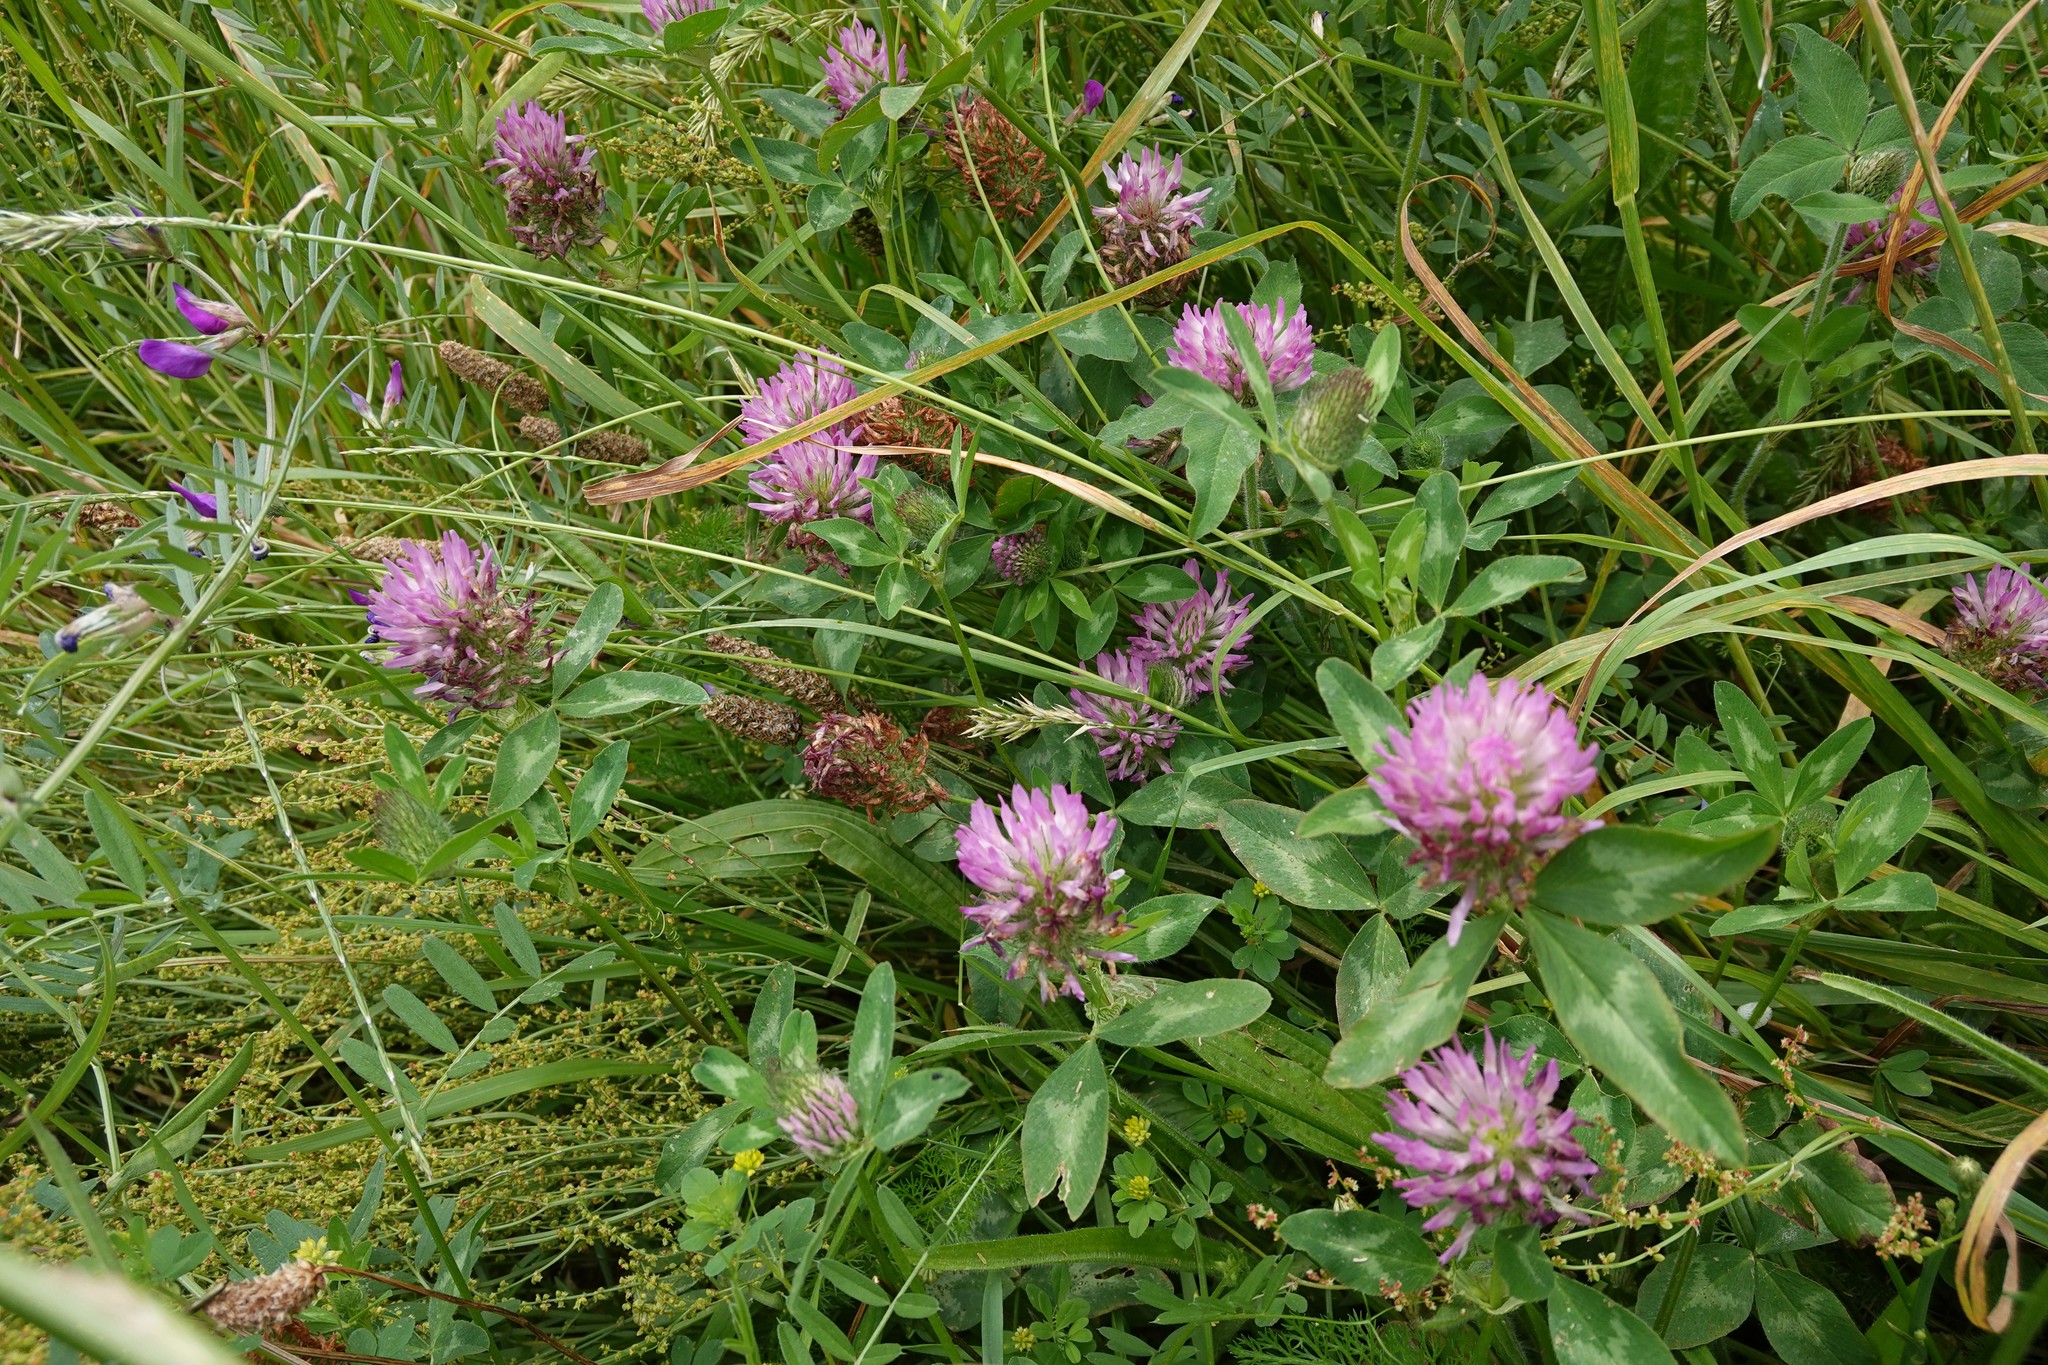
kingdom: Plantae
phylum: Tracheophyta
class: Magnoliopsida
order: Fabales
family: Fabaceae
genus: Trifolium
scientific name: Trifolium pratense
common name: Red clover
